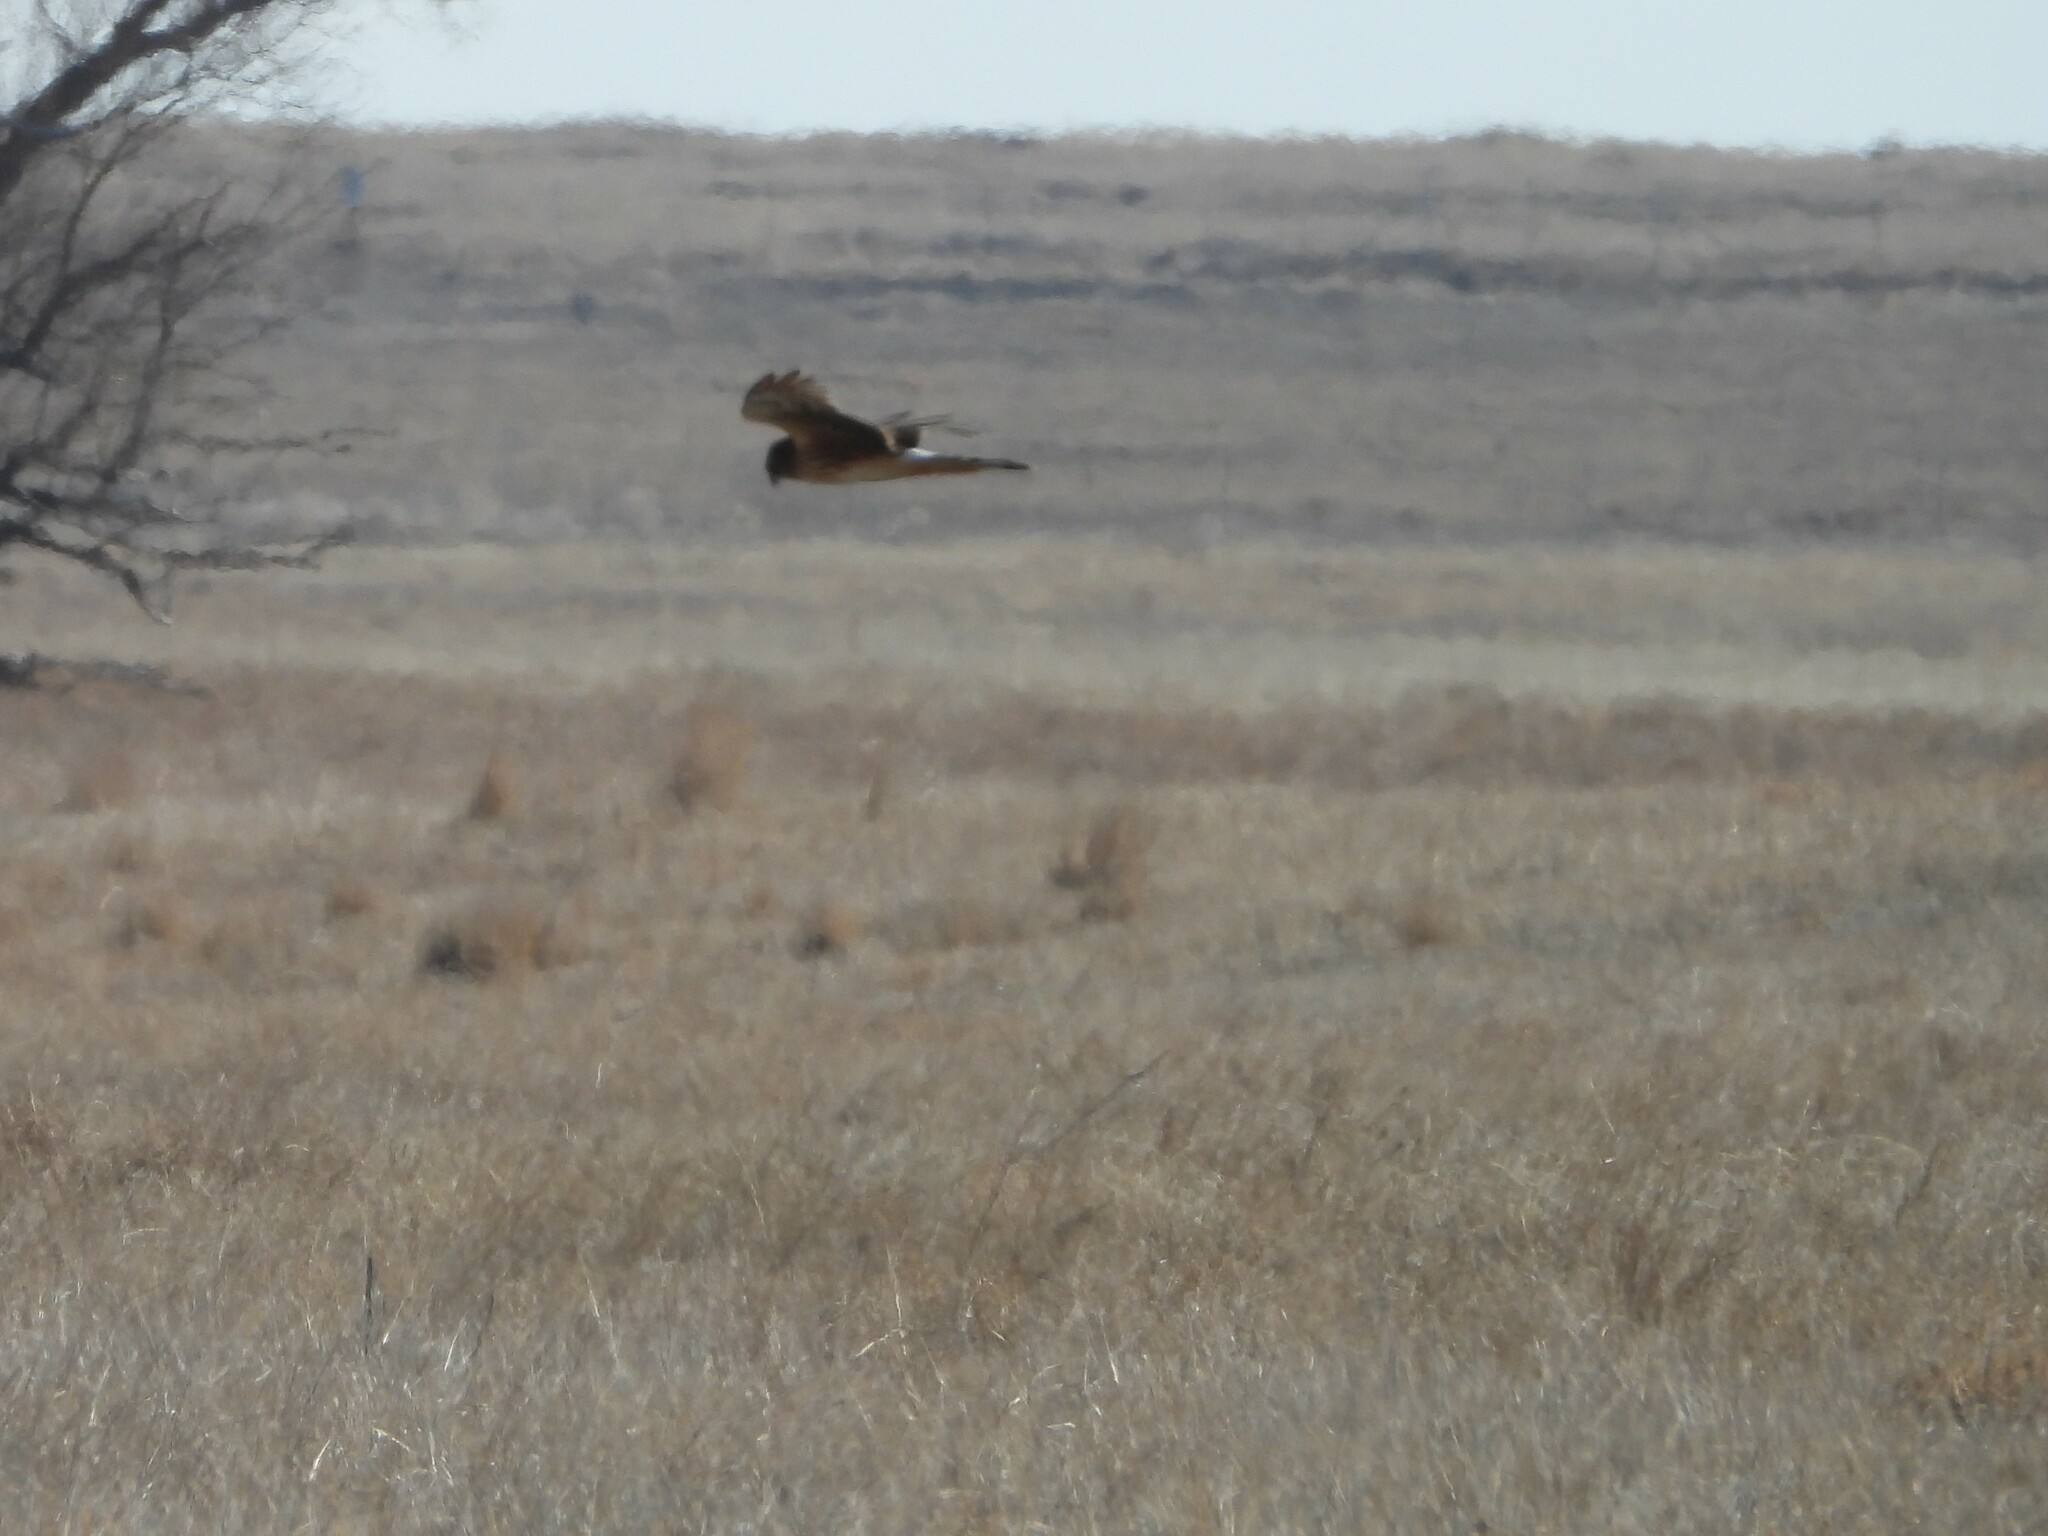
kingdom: Animalia
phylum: Chordata
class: Aves
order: Accipitriformes
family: Accipitridae
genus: Circus
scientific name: Circus cyaneus
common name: Hen harrier
